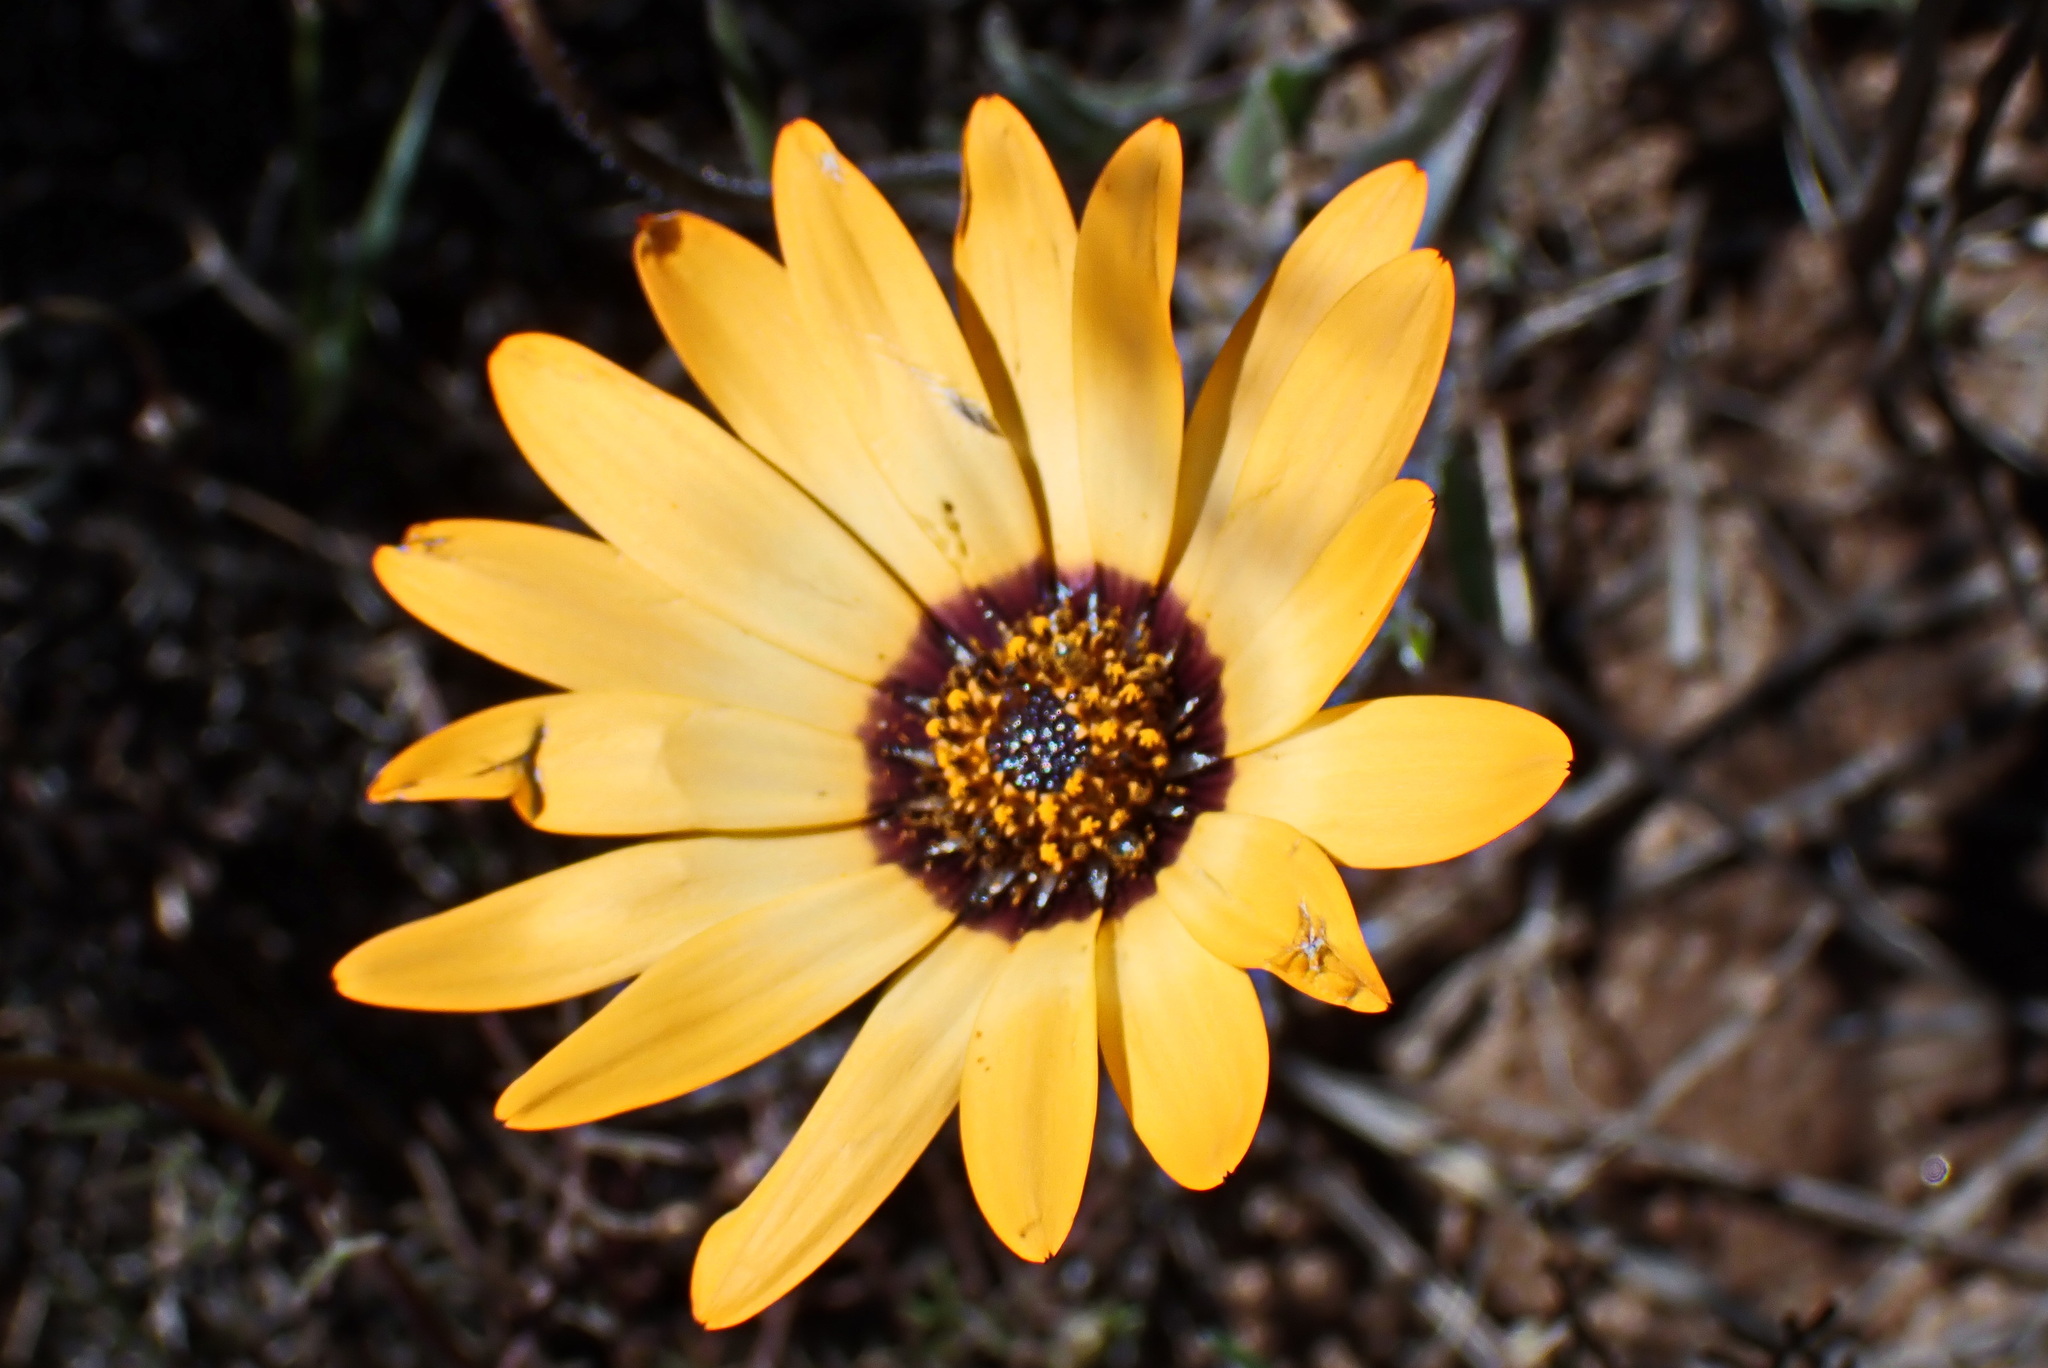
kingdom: Plantae
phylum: Tracheophyta
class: Magnoliopsida
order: Asterales
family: Asteraceae
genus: Dimorphotheca
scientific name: Dimorphotheca sinuata
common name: Glandular cape marigold
